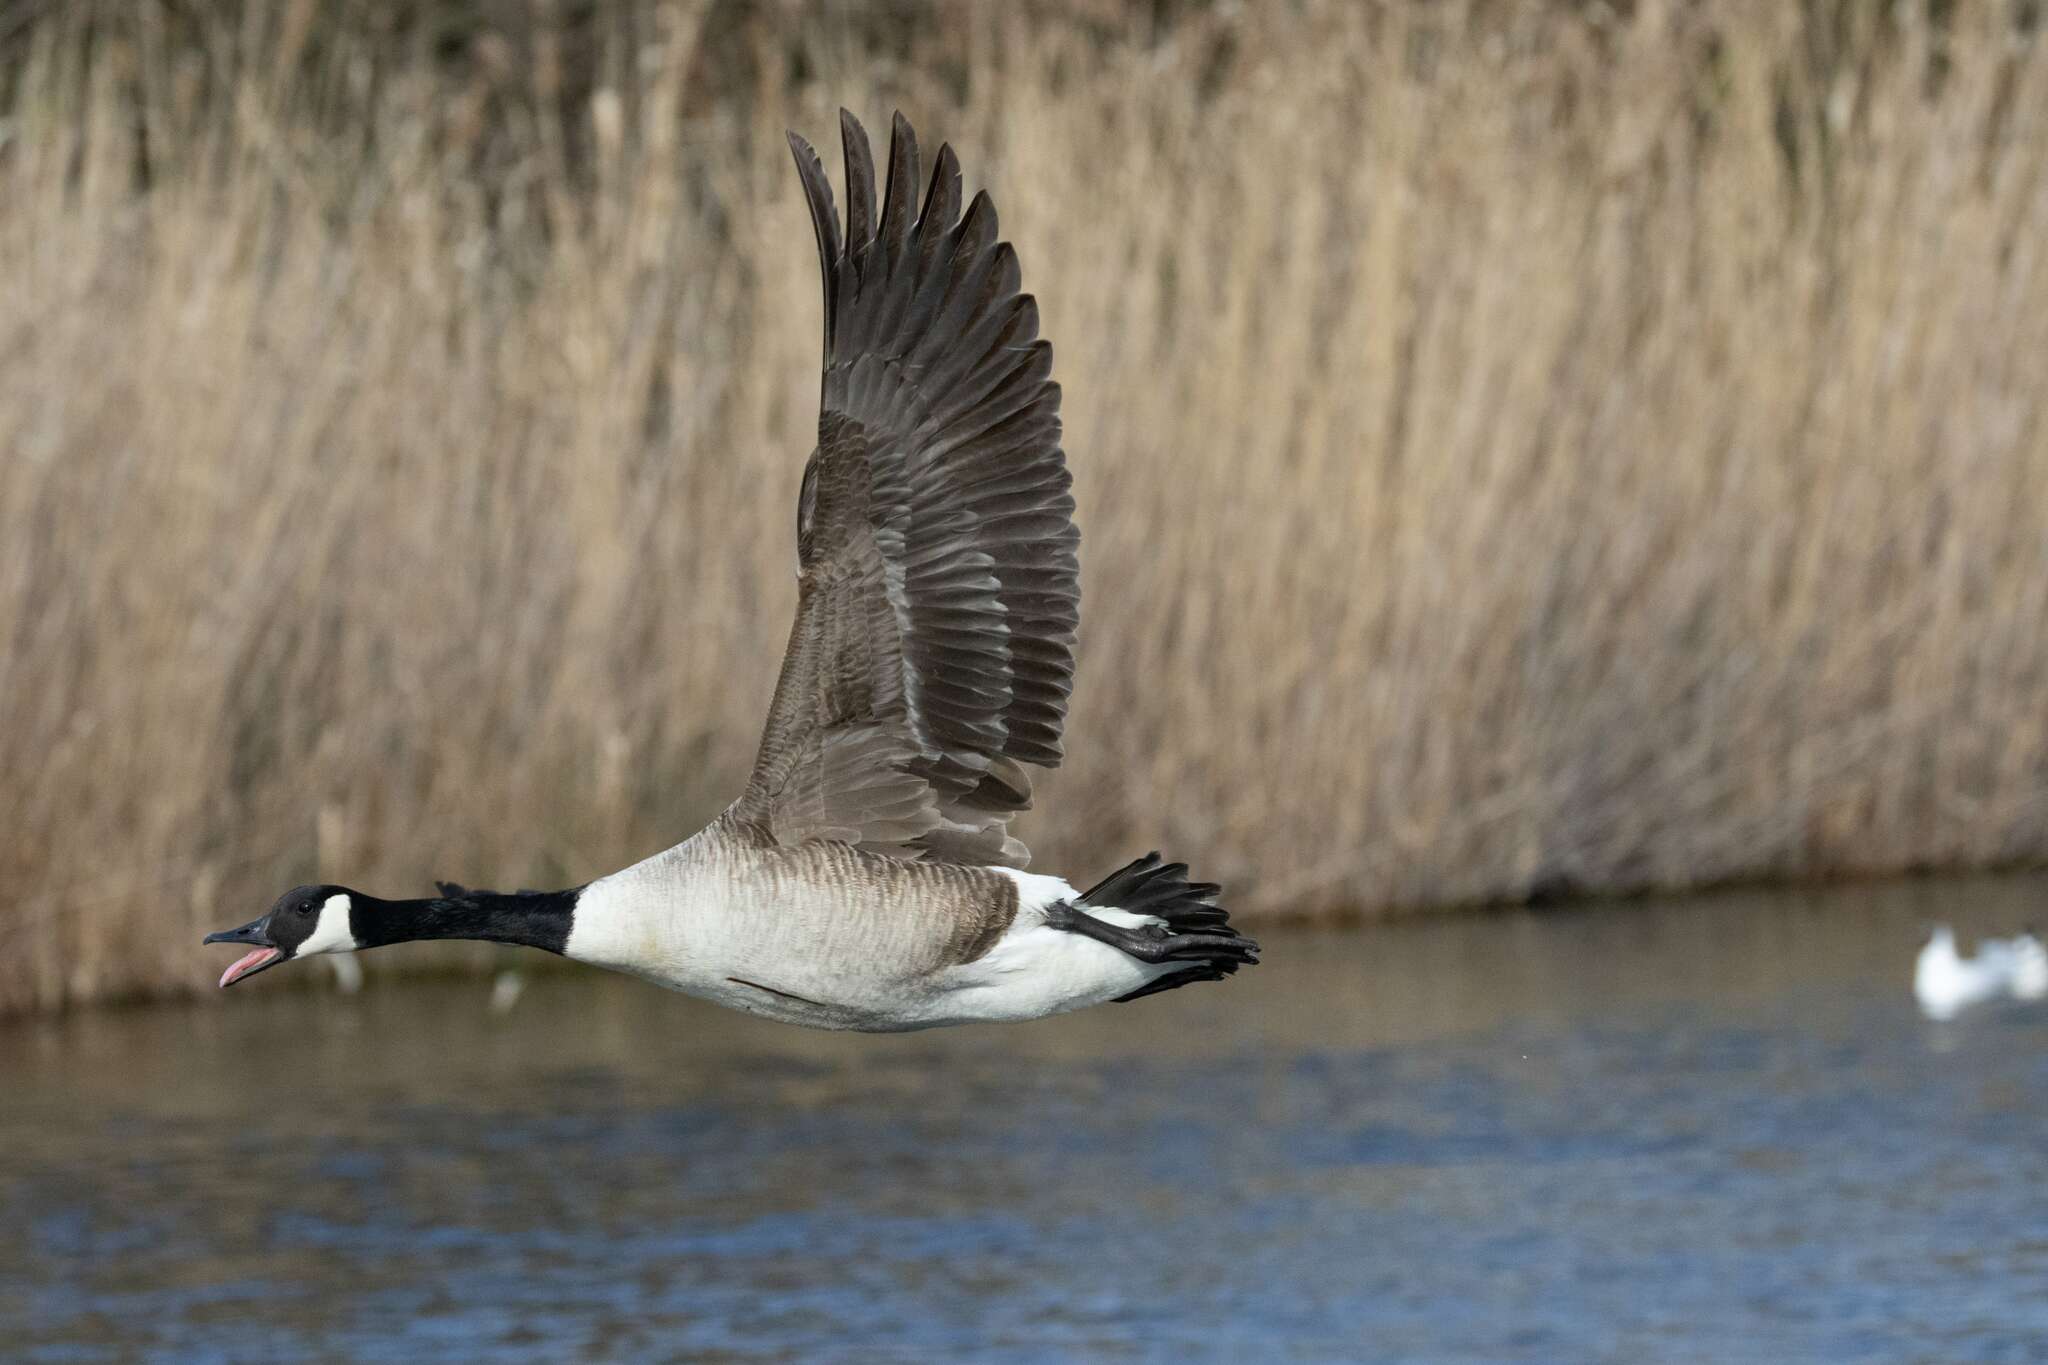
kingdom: Animalia
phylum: Chordata
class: Aves
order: Anseriformes
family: Anatidae
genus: Branta
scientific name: Branta canadensis
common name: Canada goose
